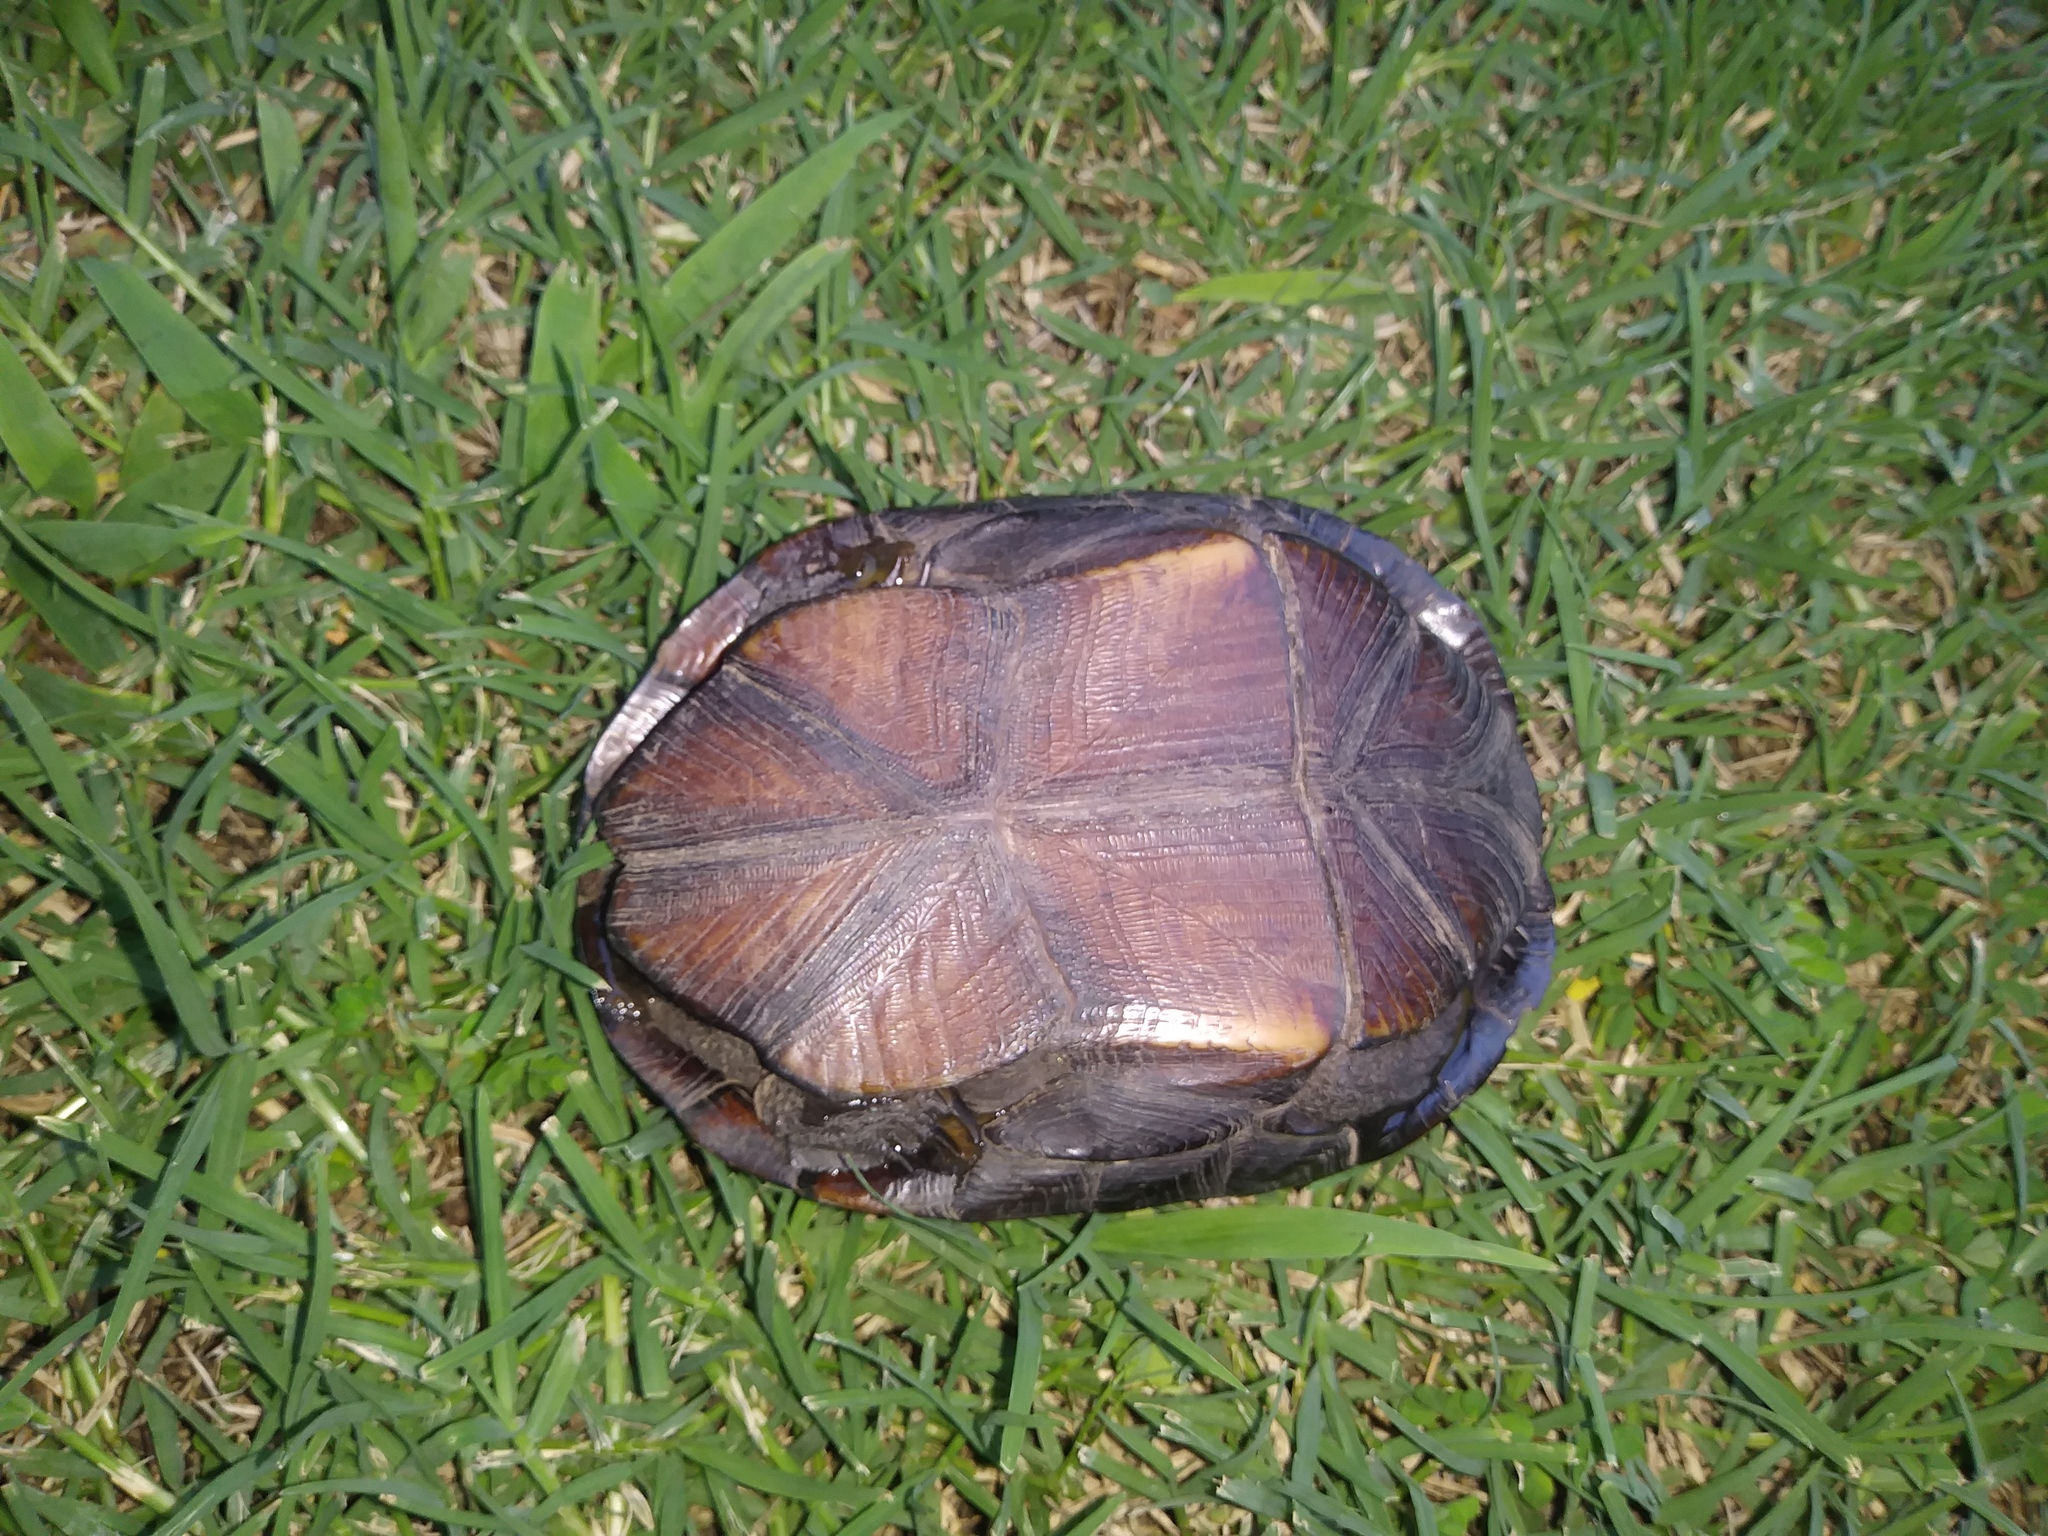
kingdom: Animalia
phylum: Chordata
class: Testudines
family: Kinosternidae
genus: Kinosternon
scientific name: Kinosternon subrubrum
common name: Eastern mud turtle
